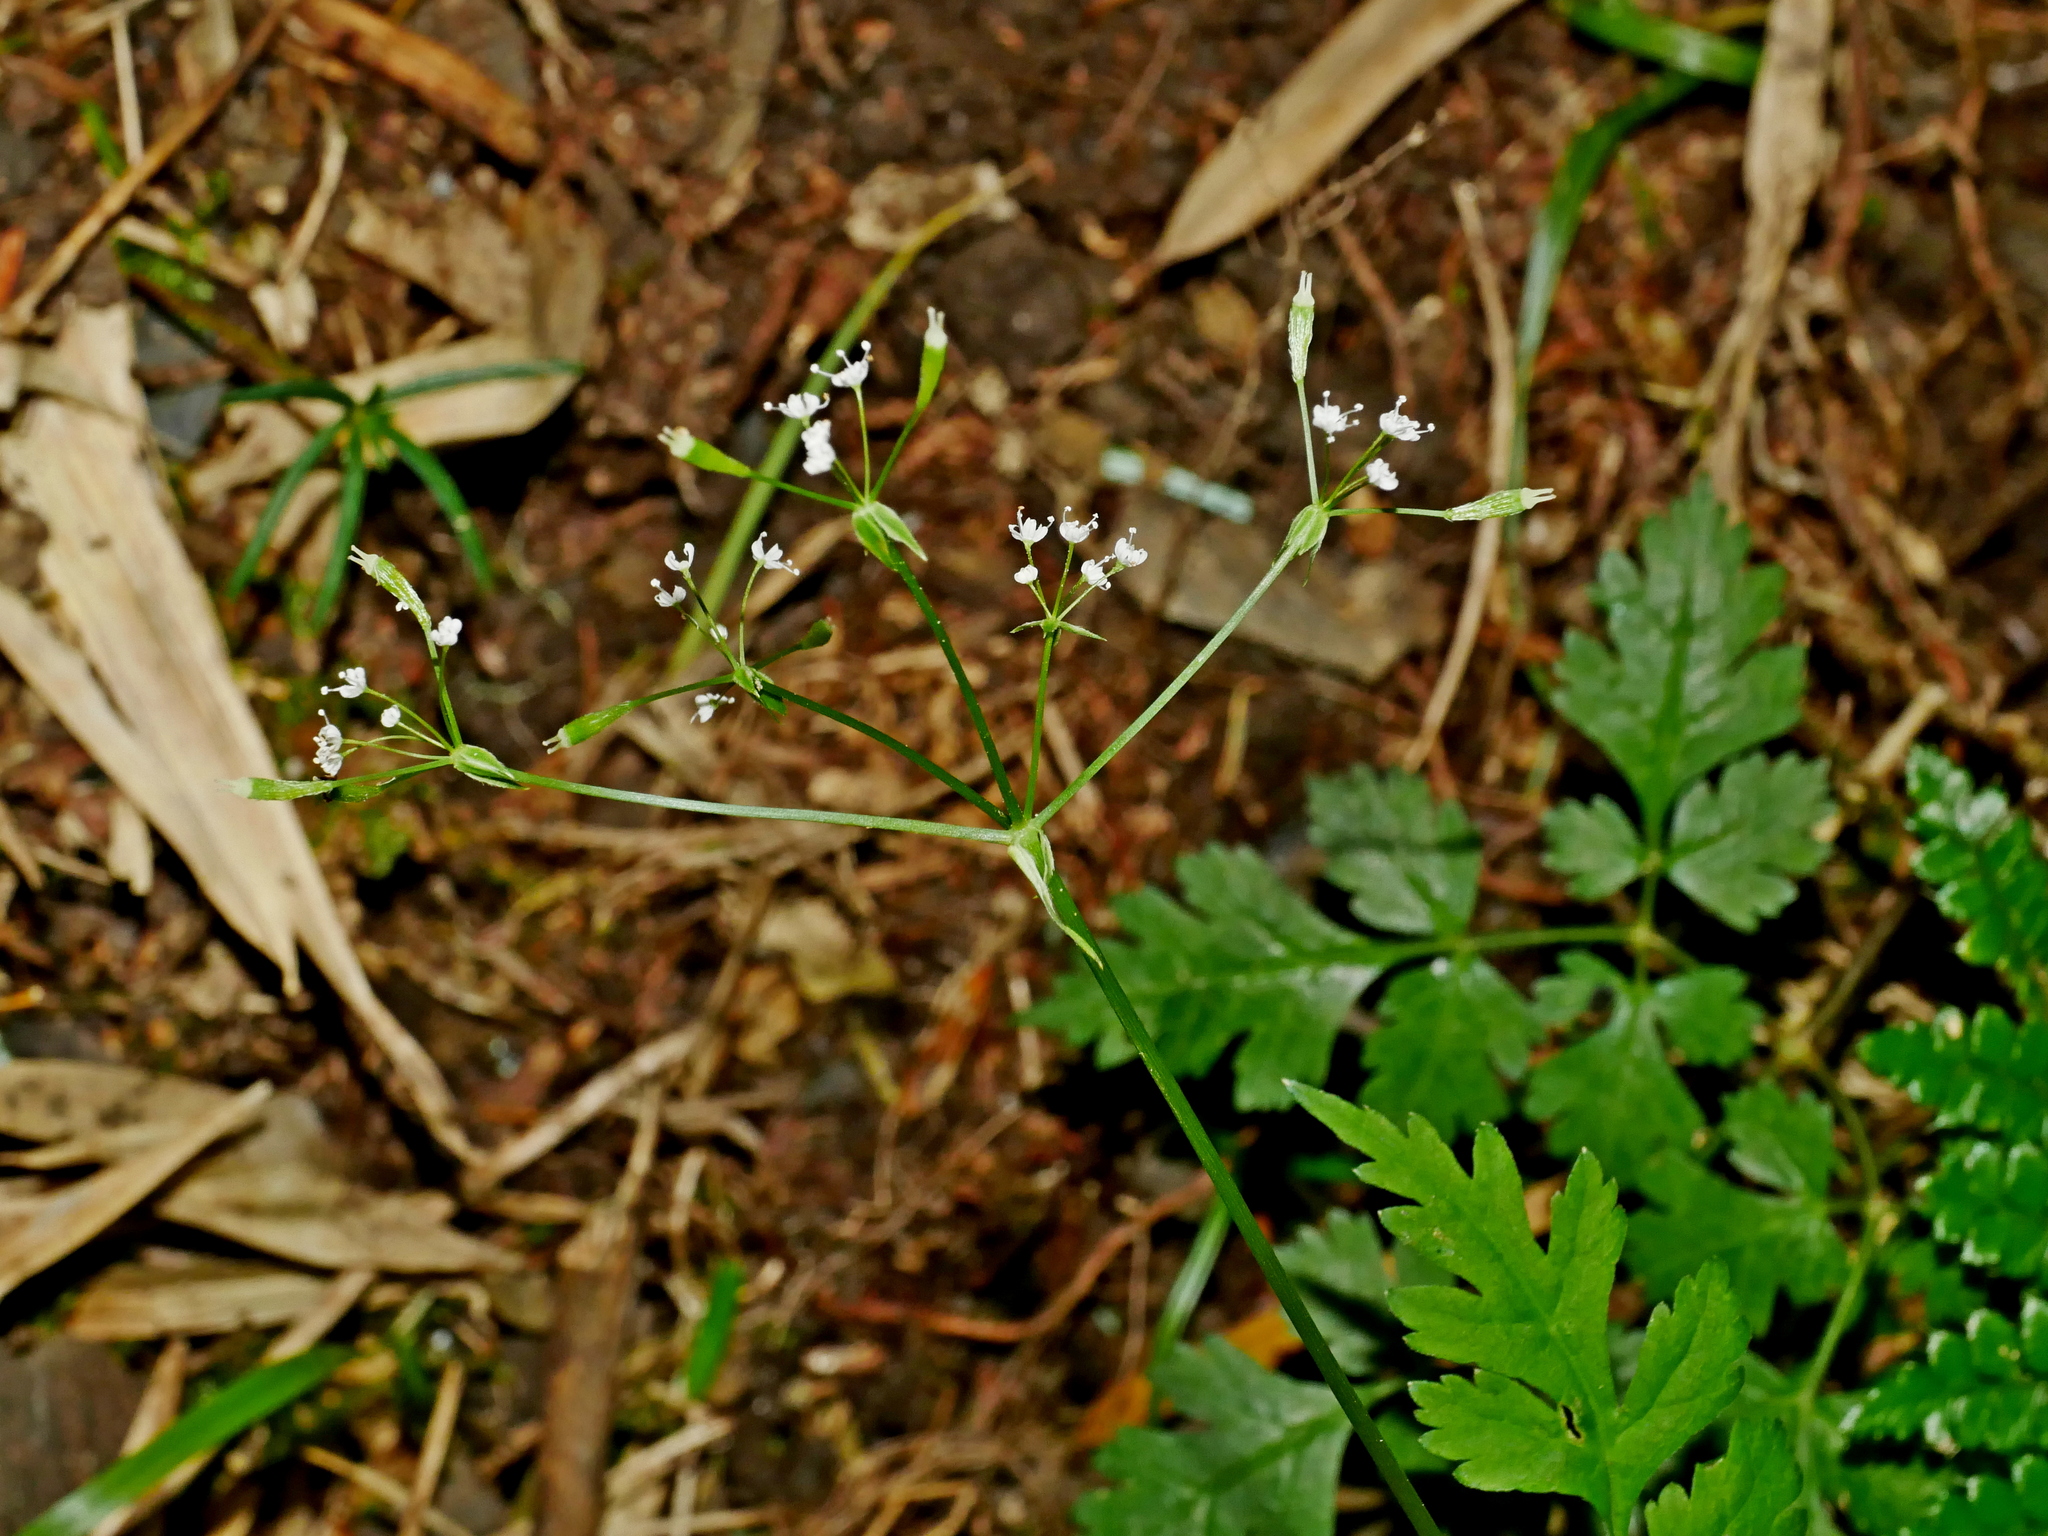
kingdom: Plantae
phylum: Tracheophyta
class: Magnoliopsida
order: Apiales
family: Apiaceae
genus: Osmorhiza
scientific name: Osmorhiza aristata
